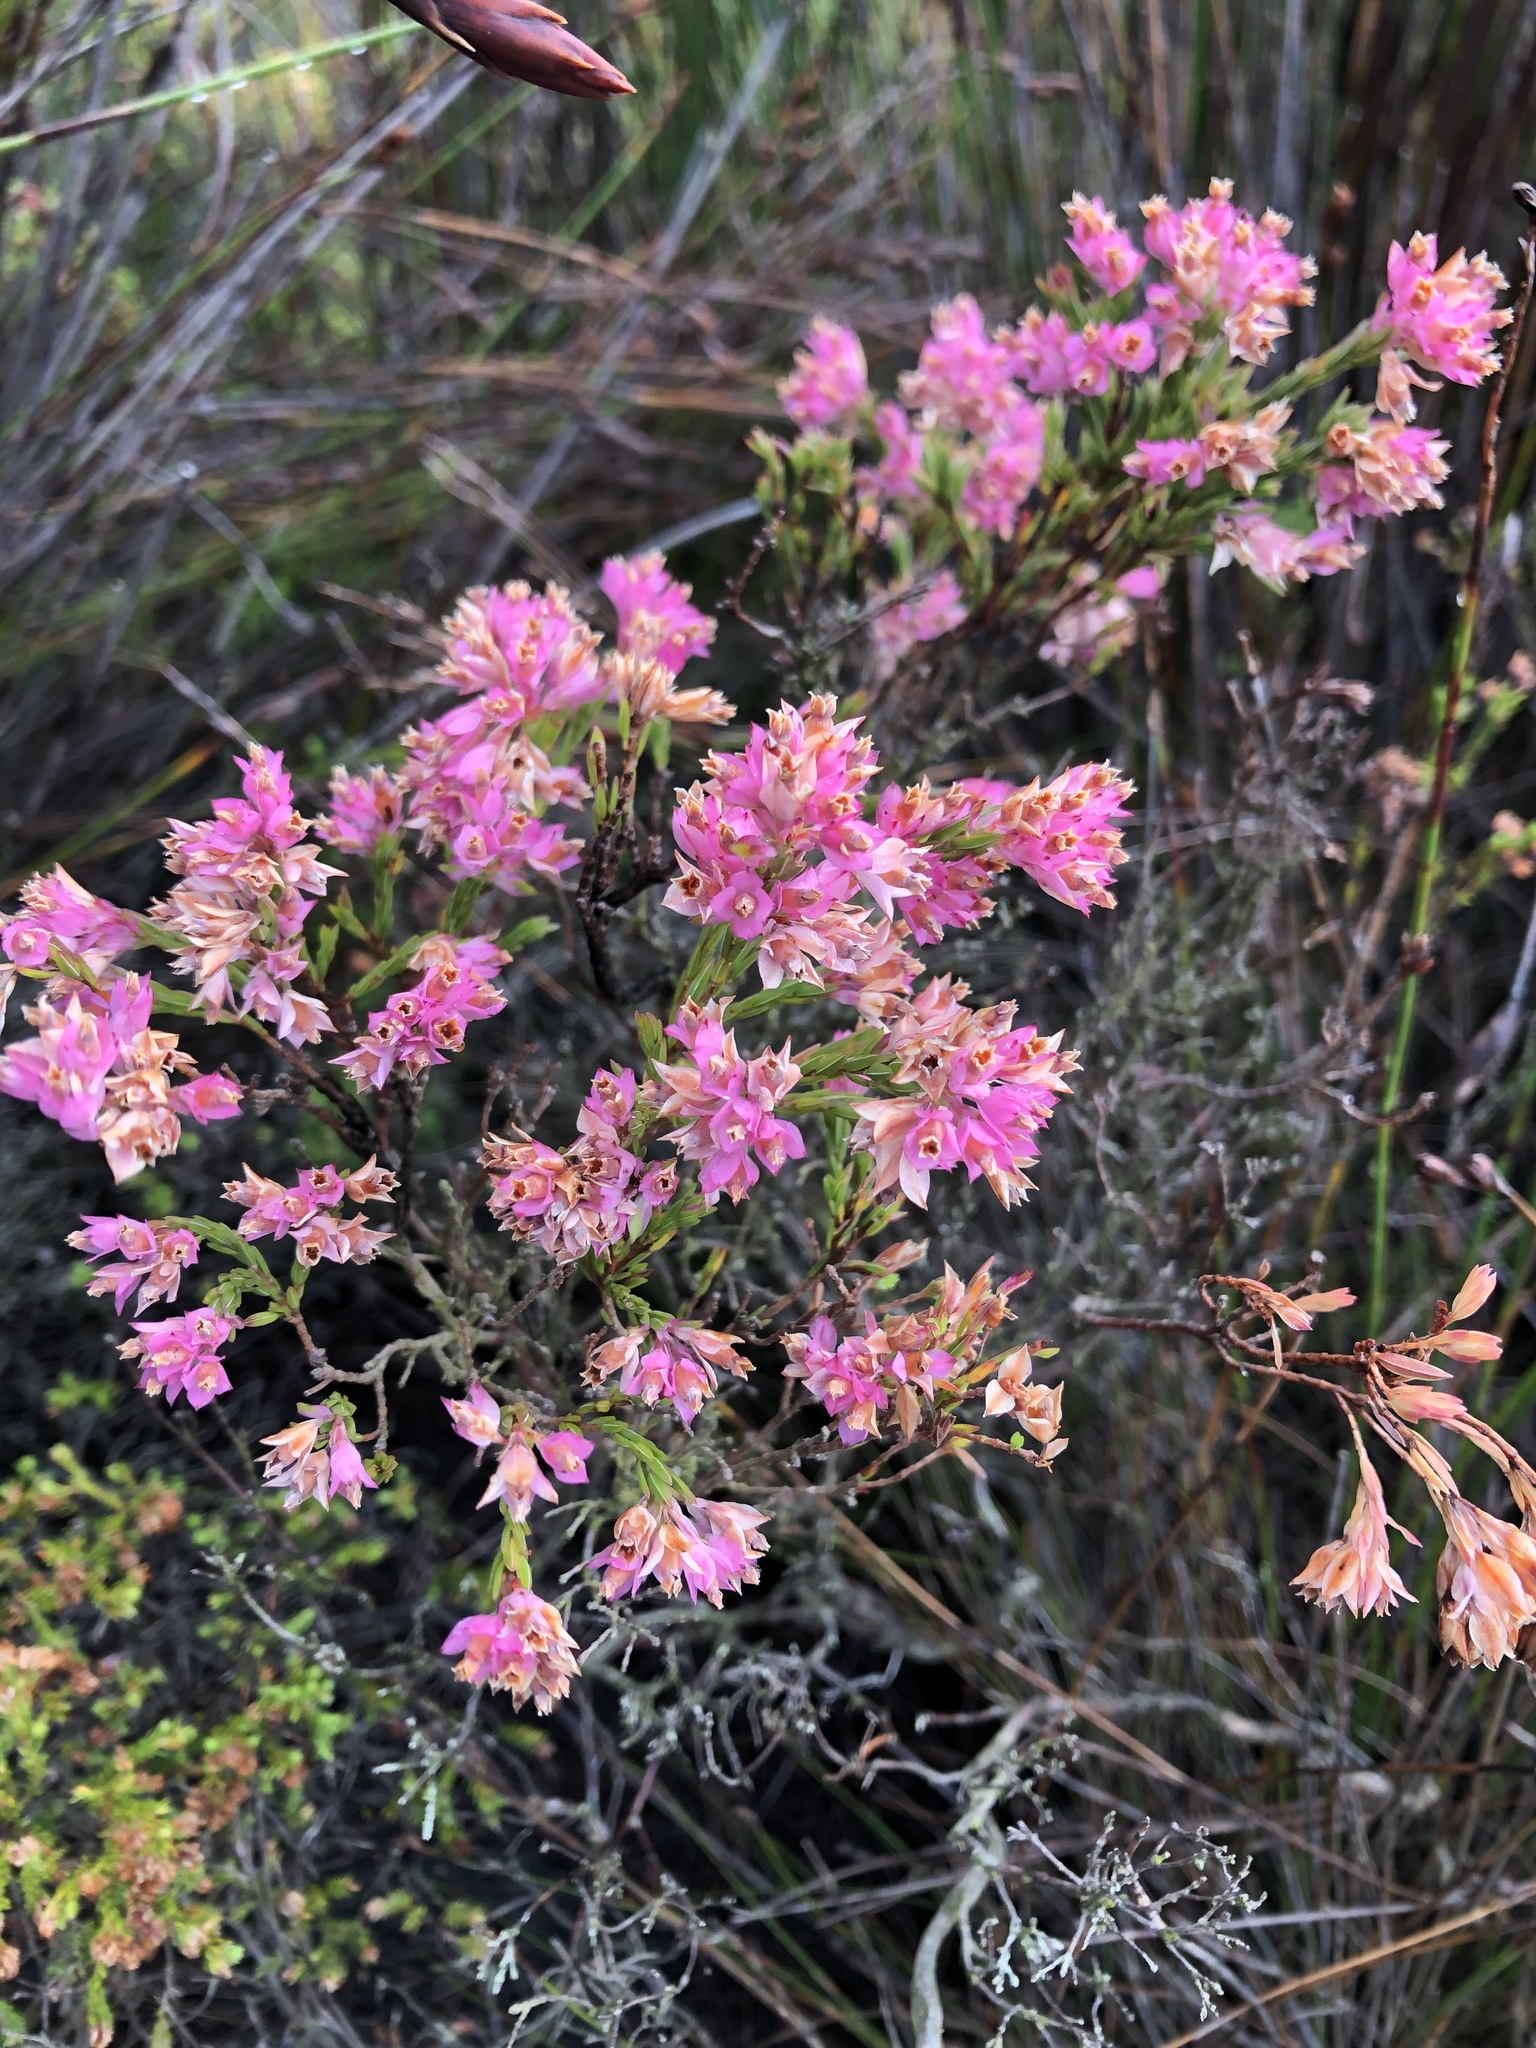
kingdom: Plantae
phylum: Tracheophyta
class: Magnoliopsida
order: Ericales
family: Ericaceae
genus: Erica
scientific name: Erica corifolia
